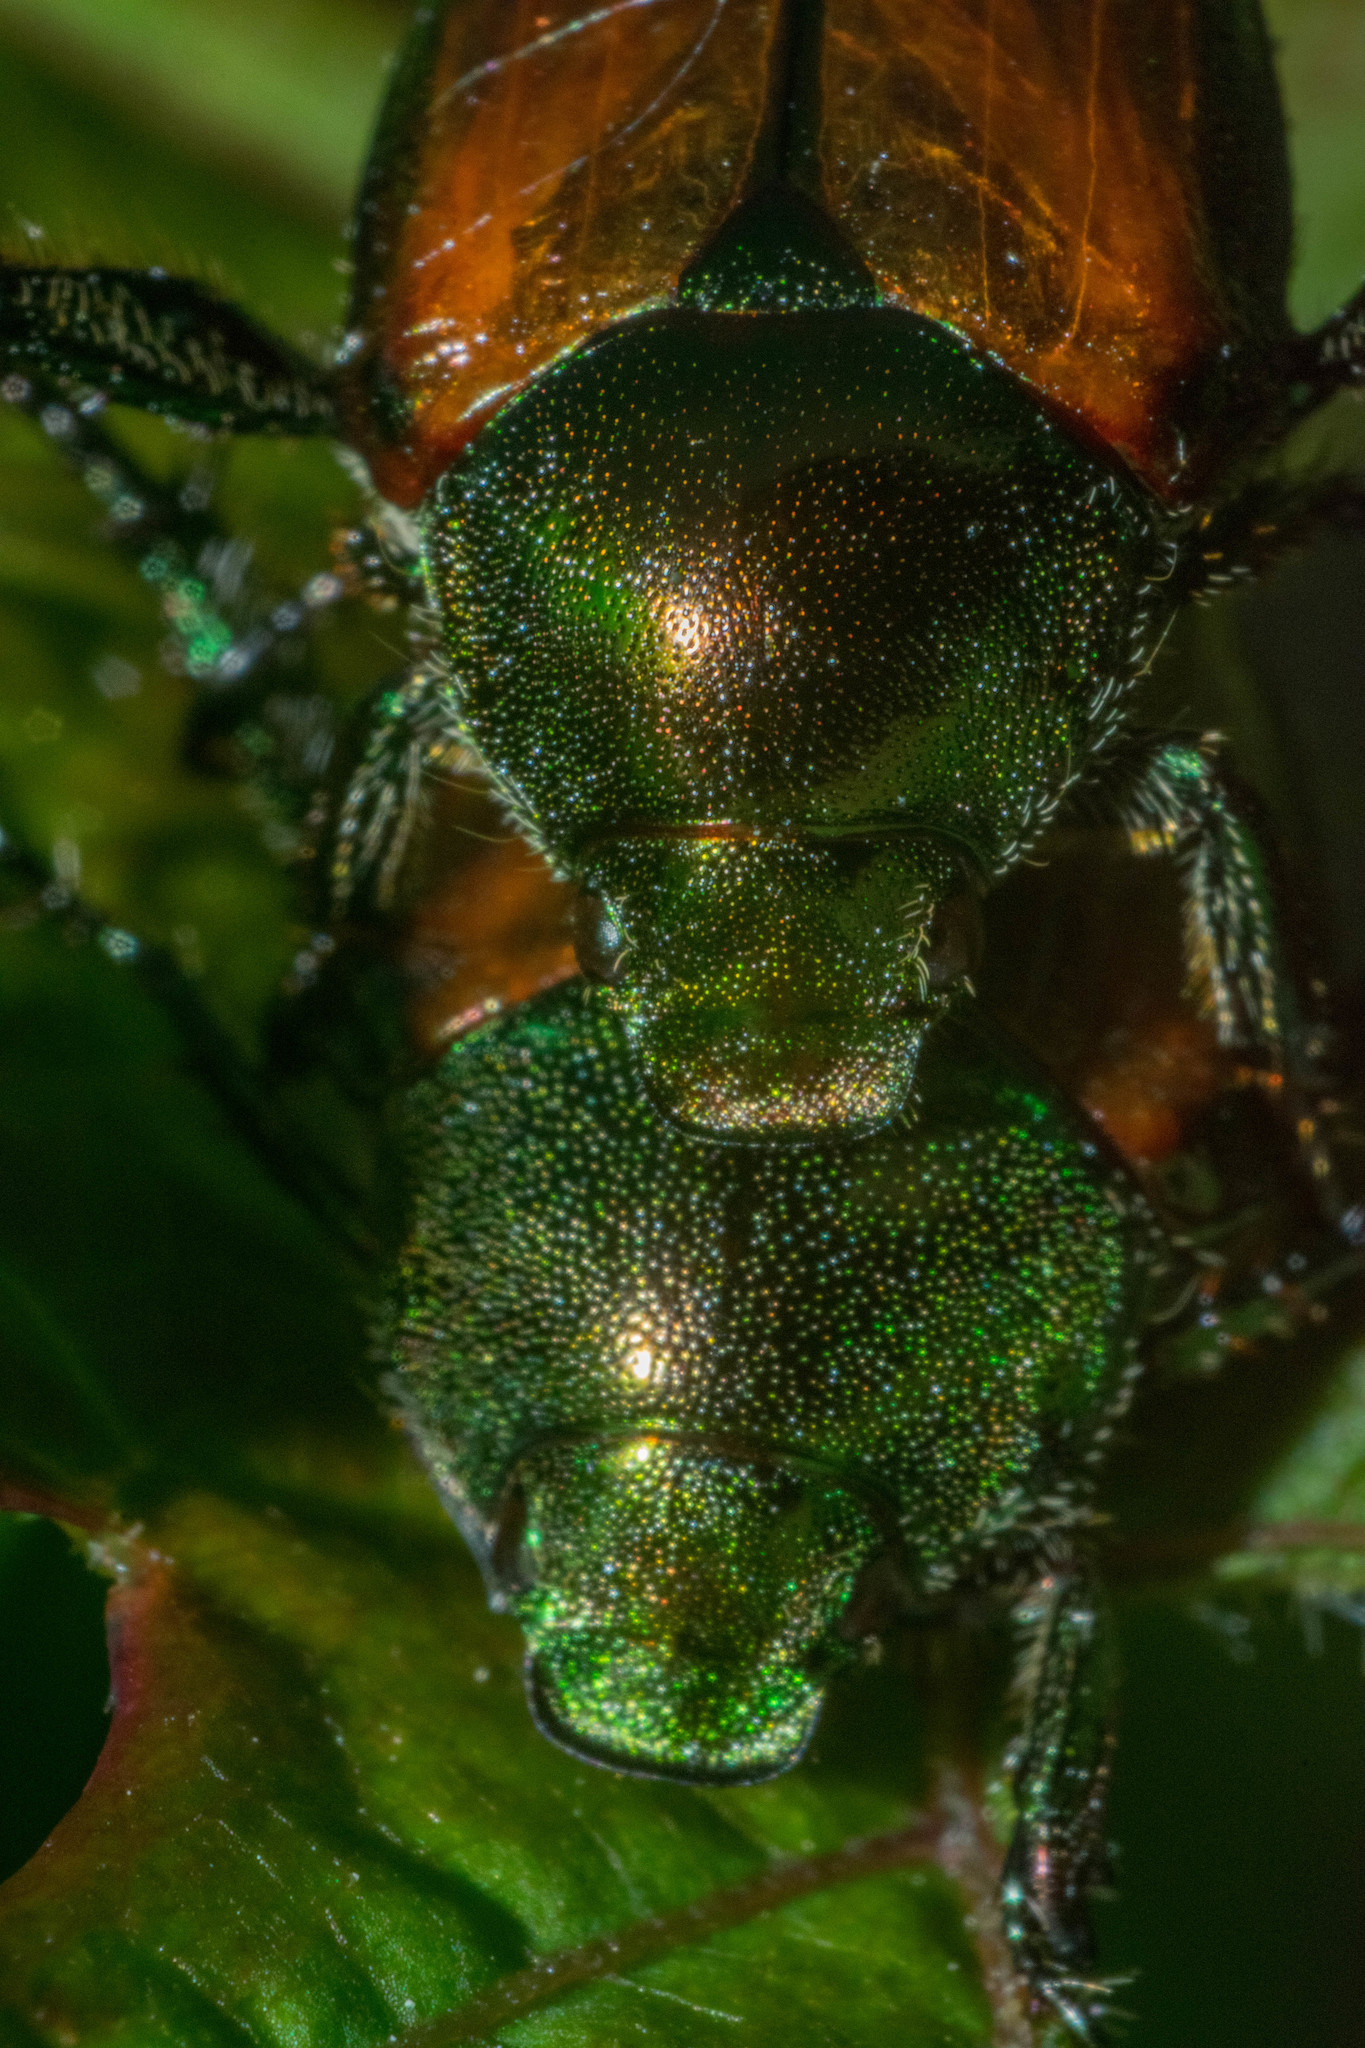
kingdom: Animalia
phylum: Arthropoda
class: Insecta
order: Coleoptera
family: Scarabaeidae
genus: Popillia
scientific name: Popillia japonica
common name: Japanese beetle
